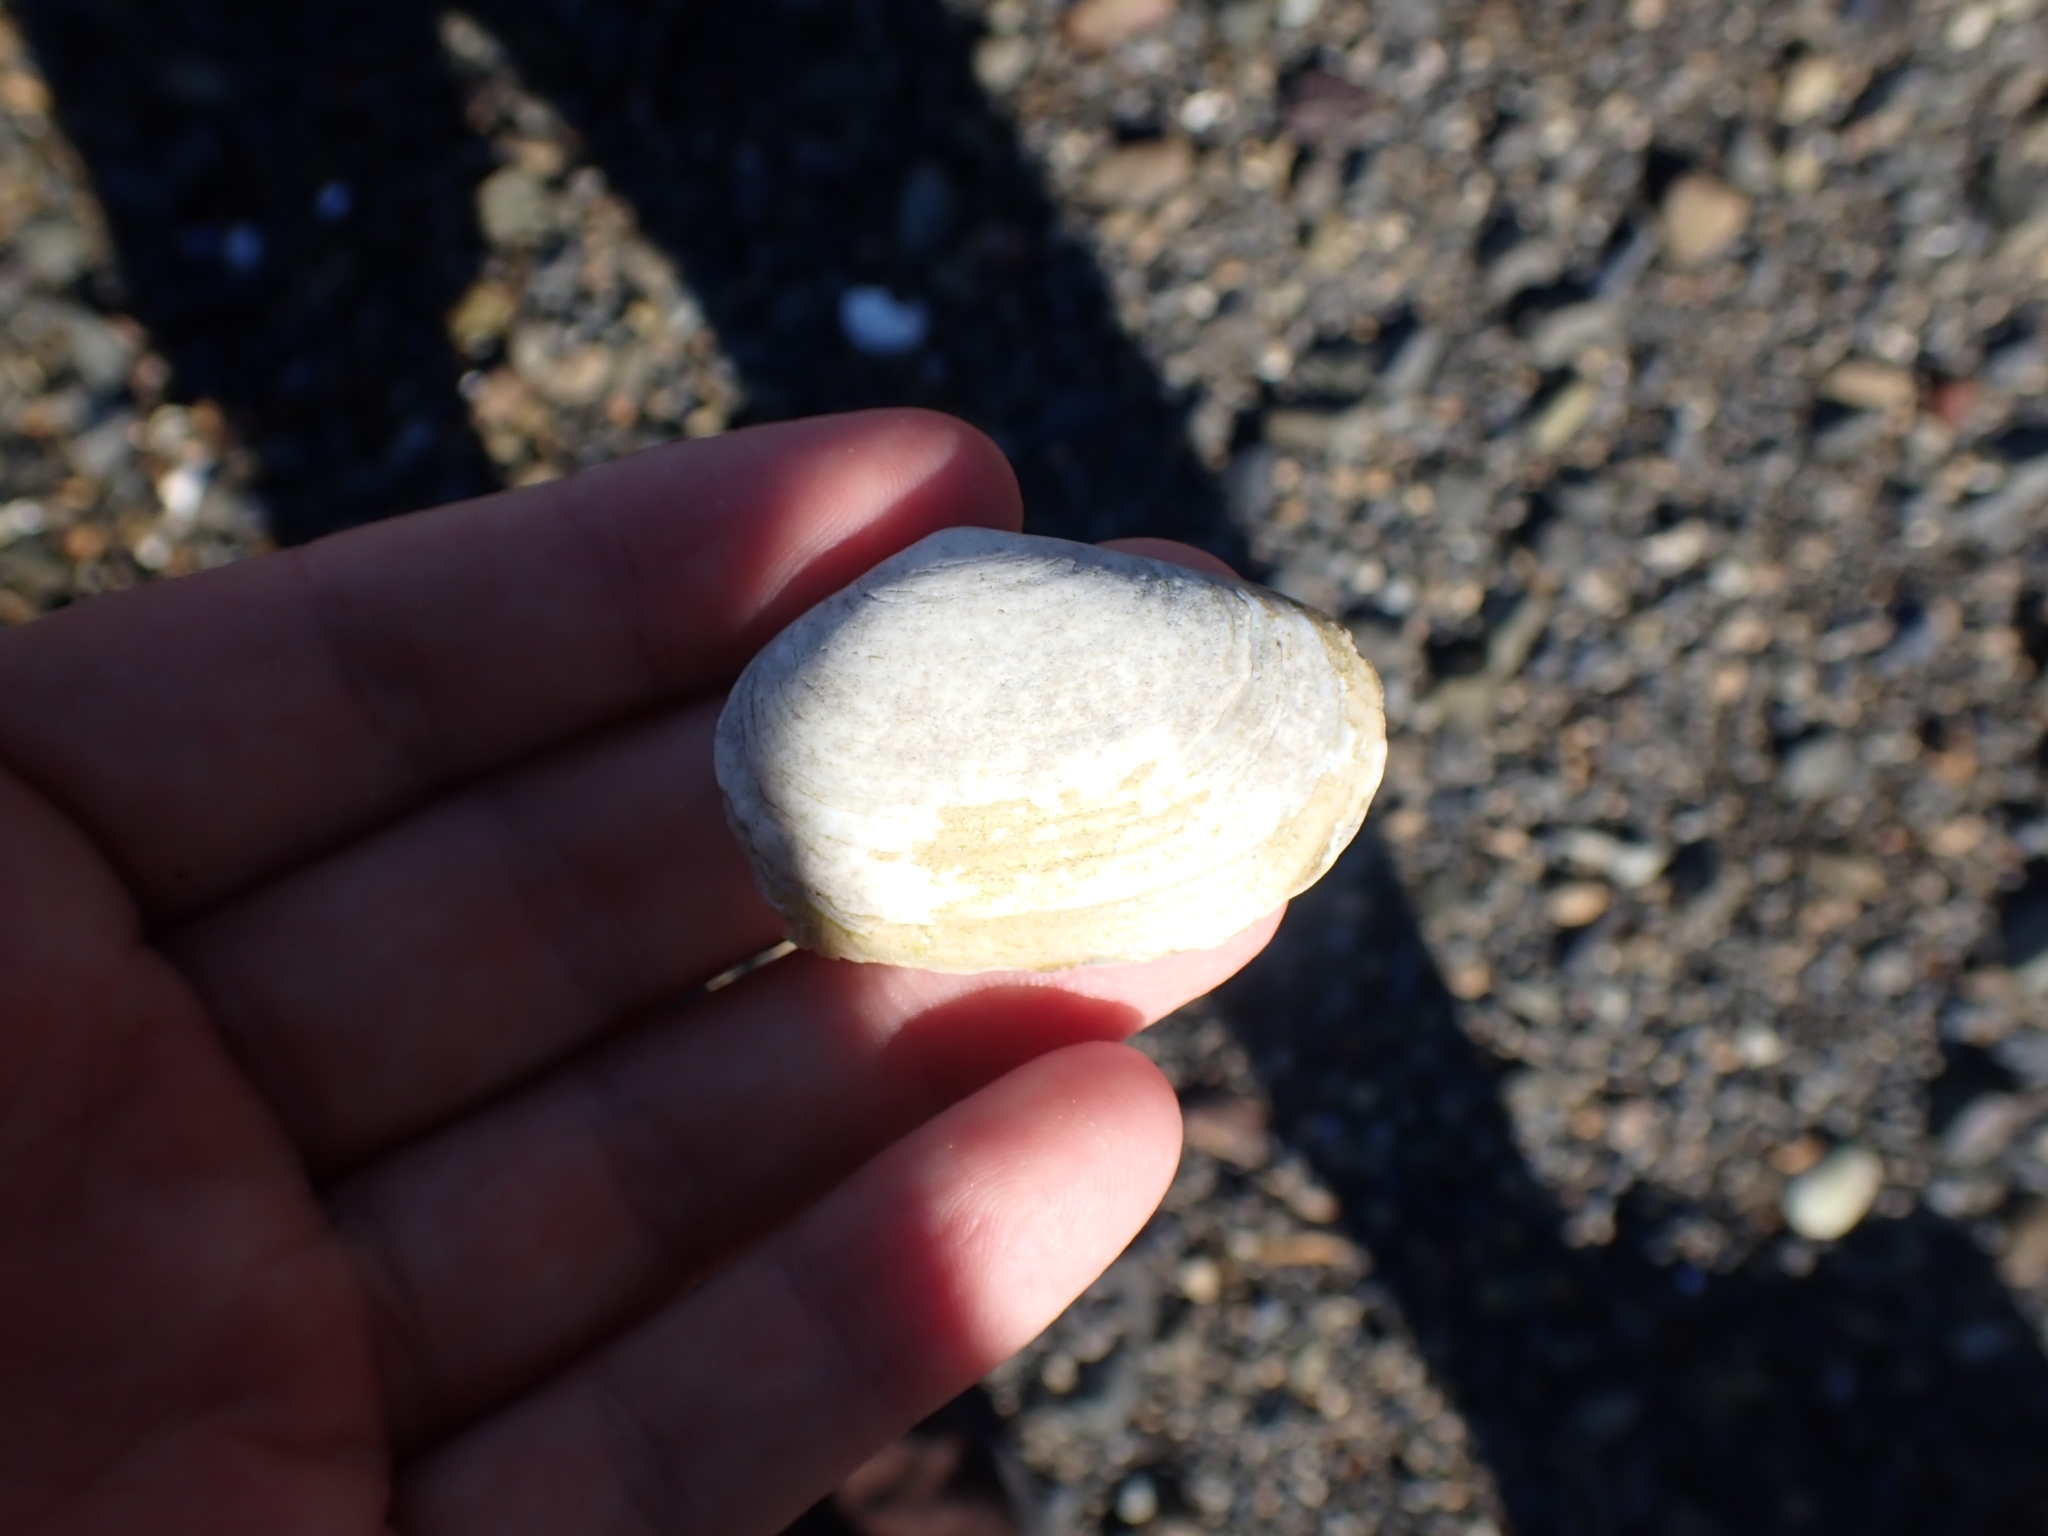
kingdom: Animalia
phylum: Mollusca
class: Bivalvia
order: Venerida
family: Mesodesmatidae
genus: Paphies
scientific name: Paphies australis
